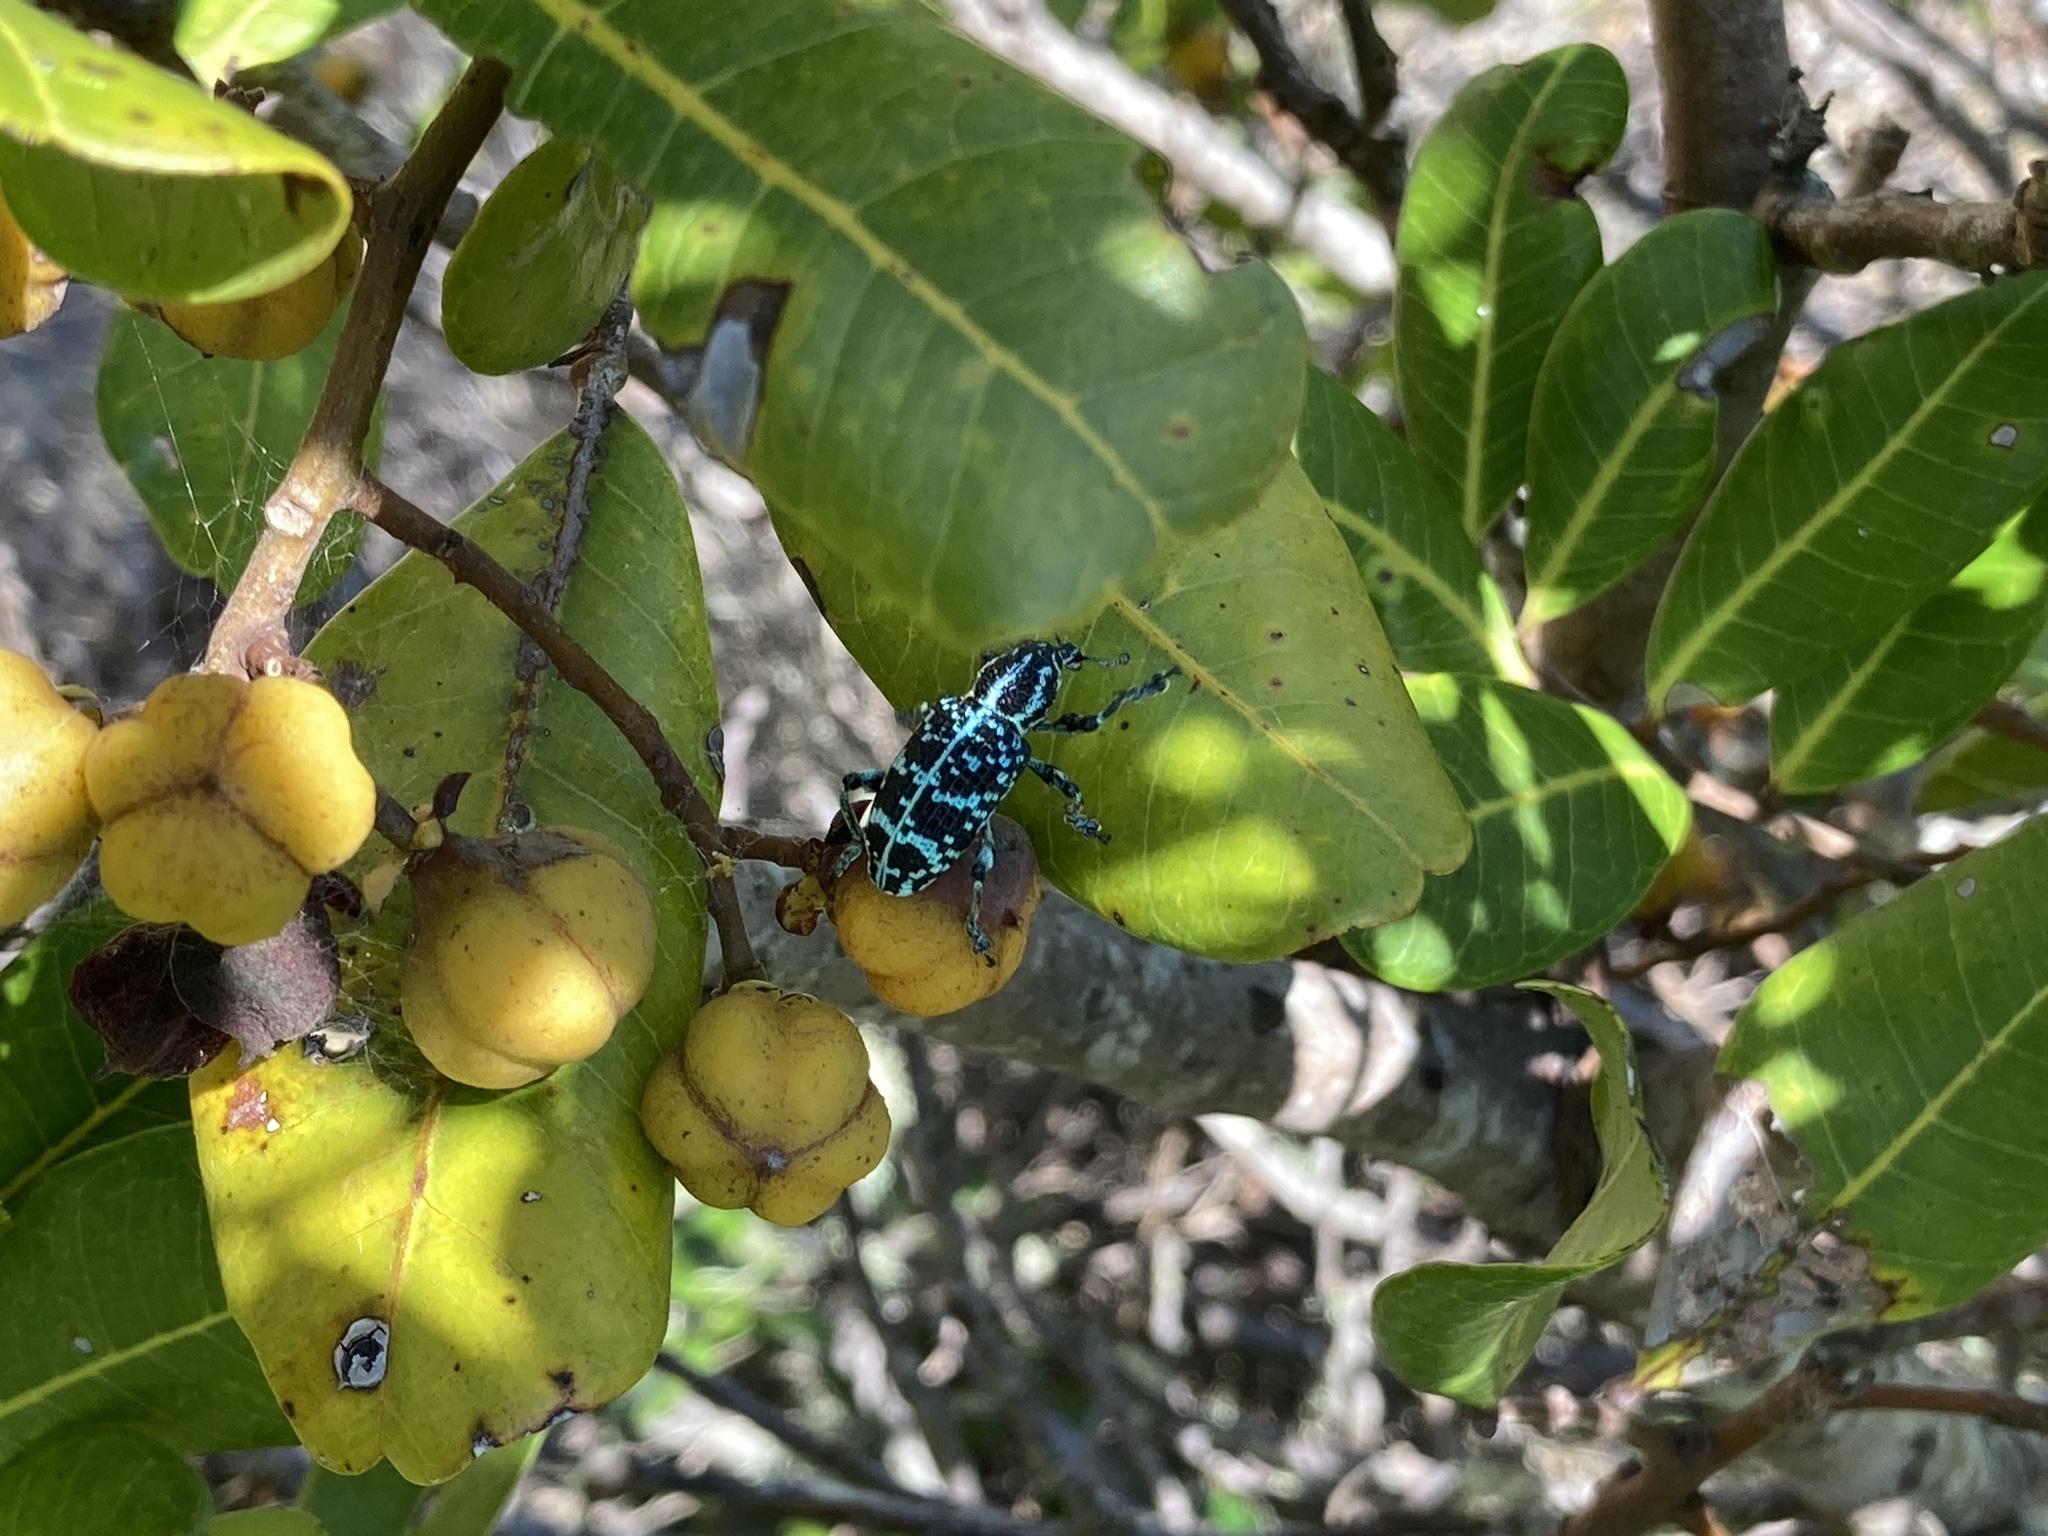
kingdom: Animalia
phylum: Arthropoda
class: Insecta
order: Coleoptera
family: Curculionidae
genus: Chrysolopus
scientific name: Chrysolopus spectabilis
